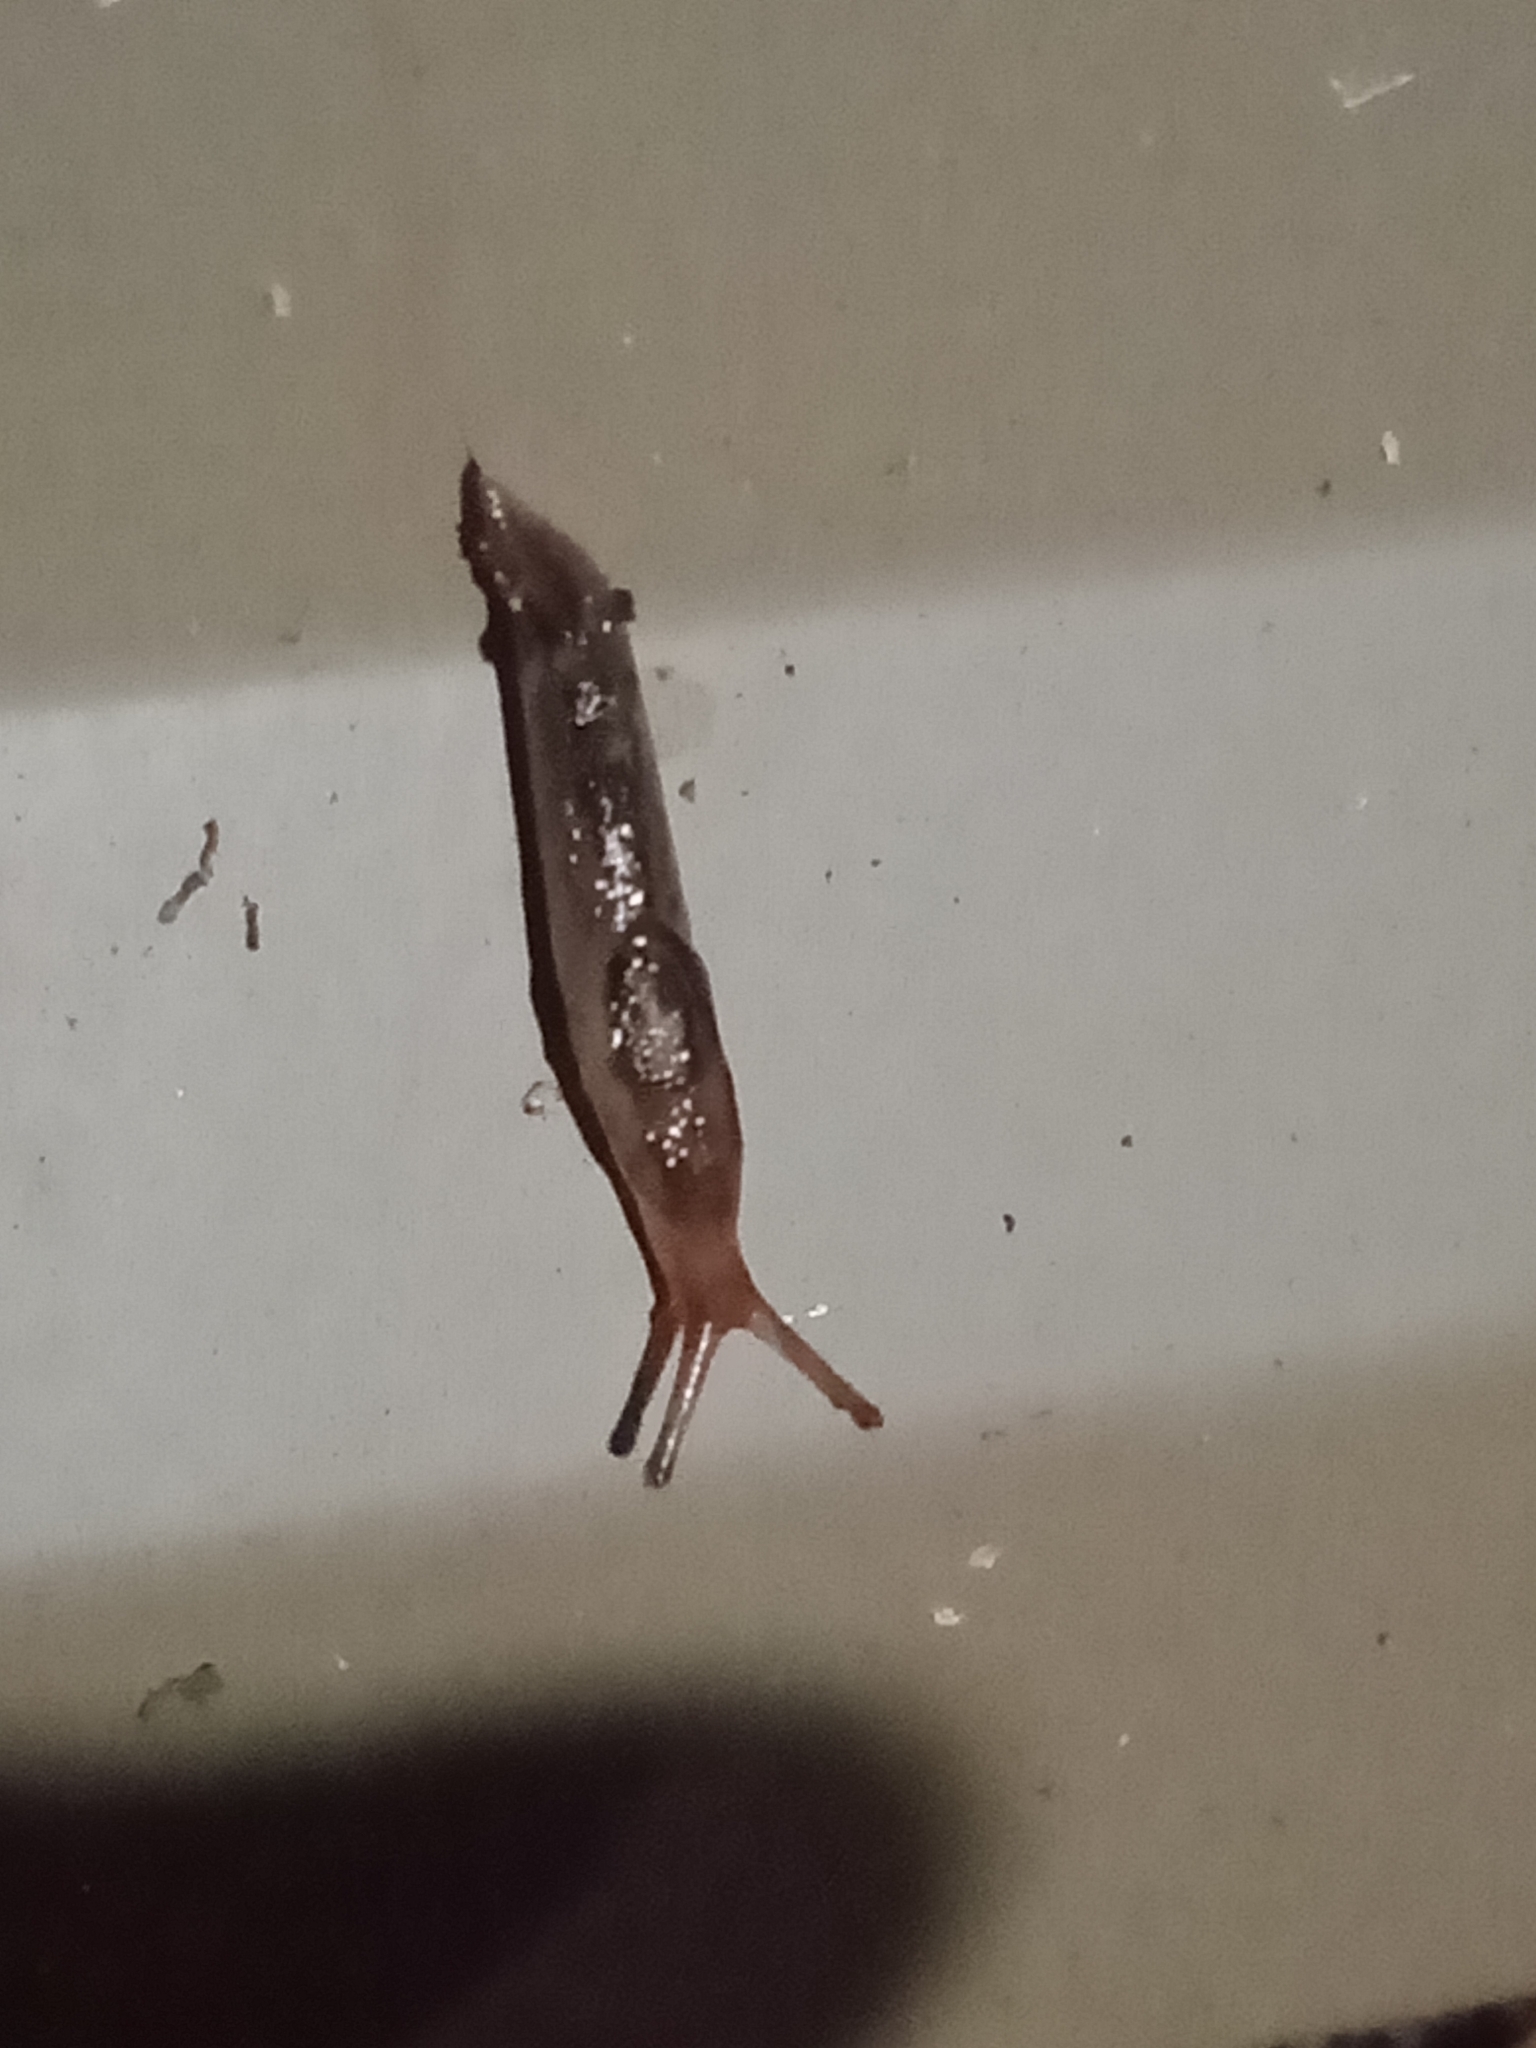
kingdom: Animalia
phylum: Mollusca
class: Gastropoda
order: Stylommatophora
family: Limacidae
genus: Ambigolimax
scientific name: Ambigolimax
